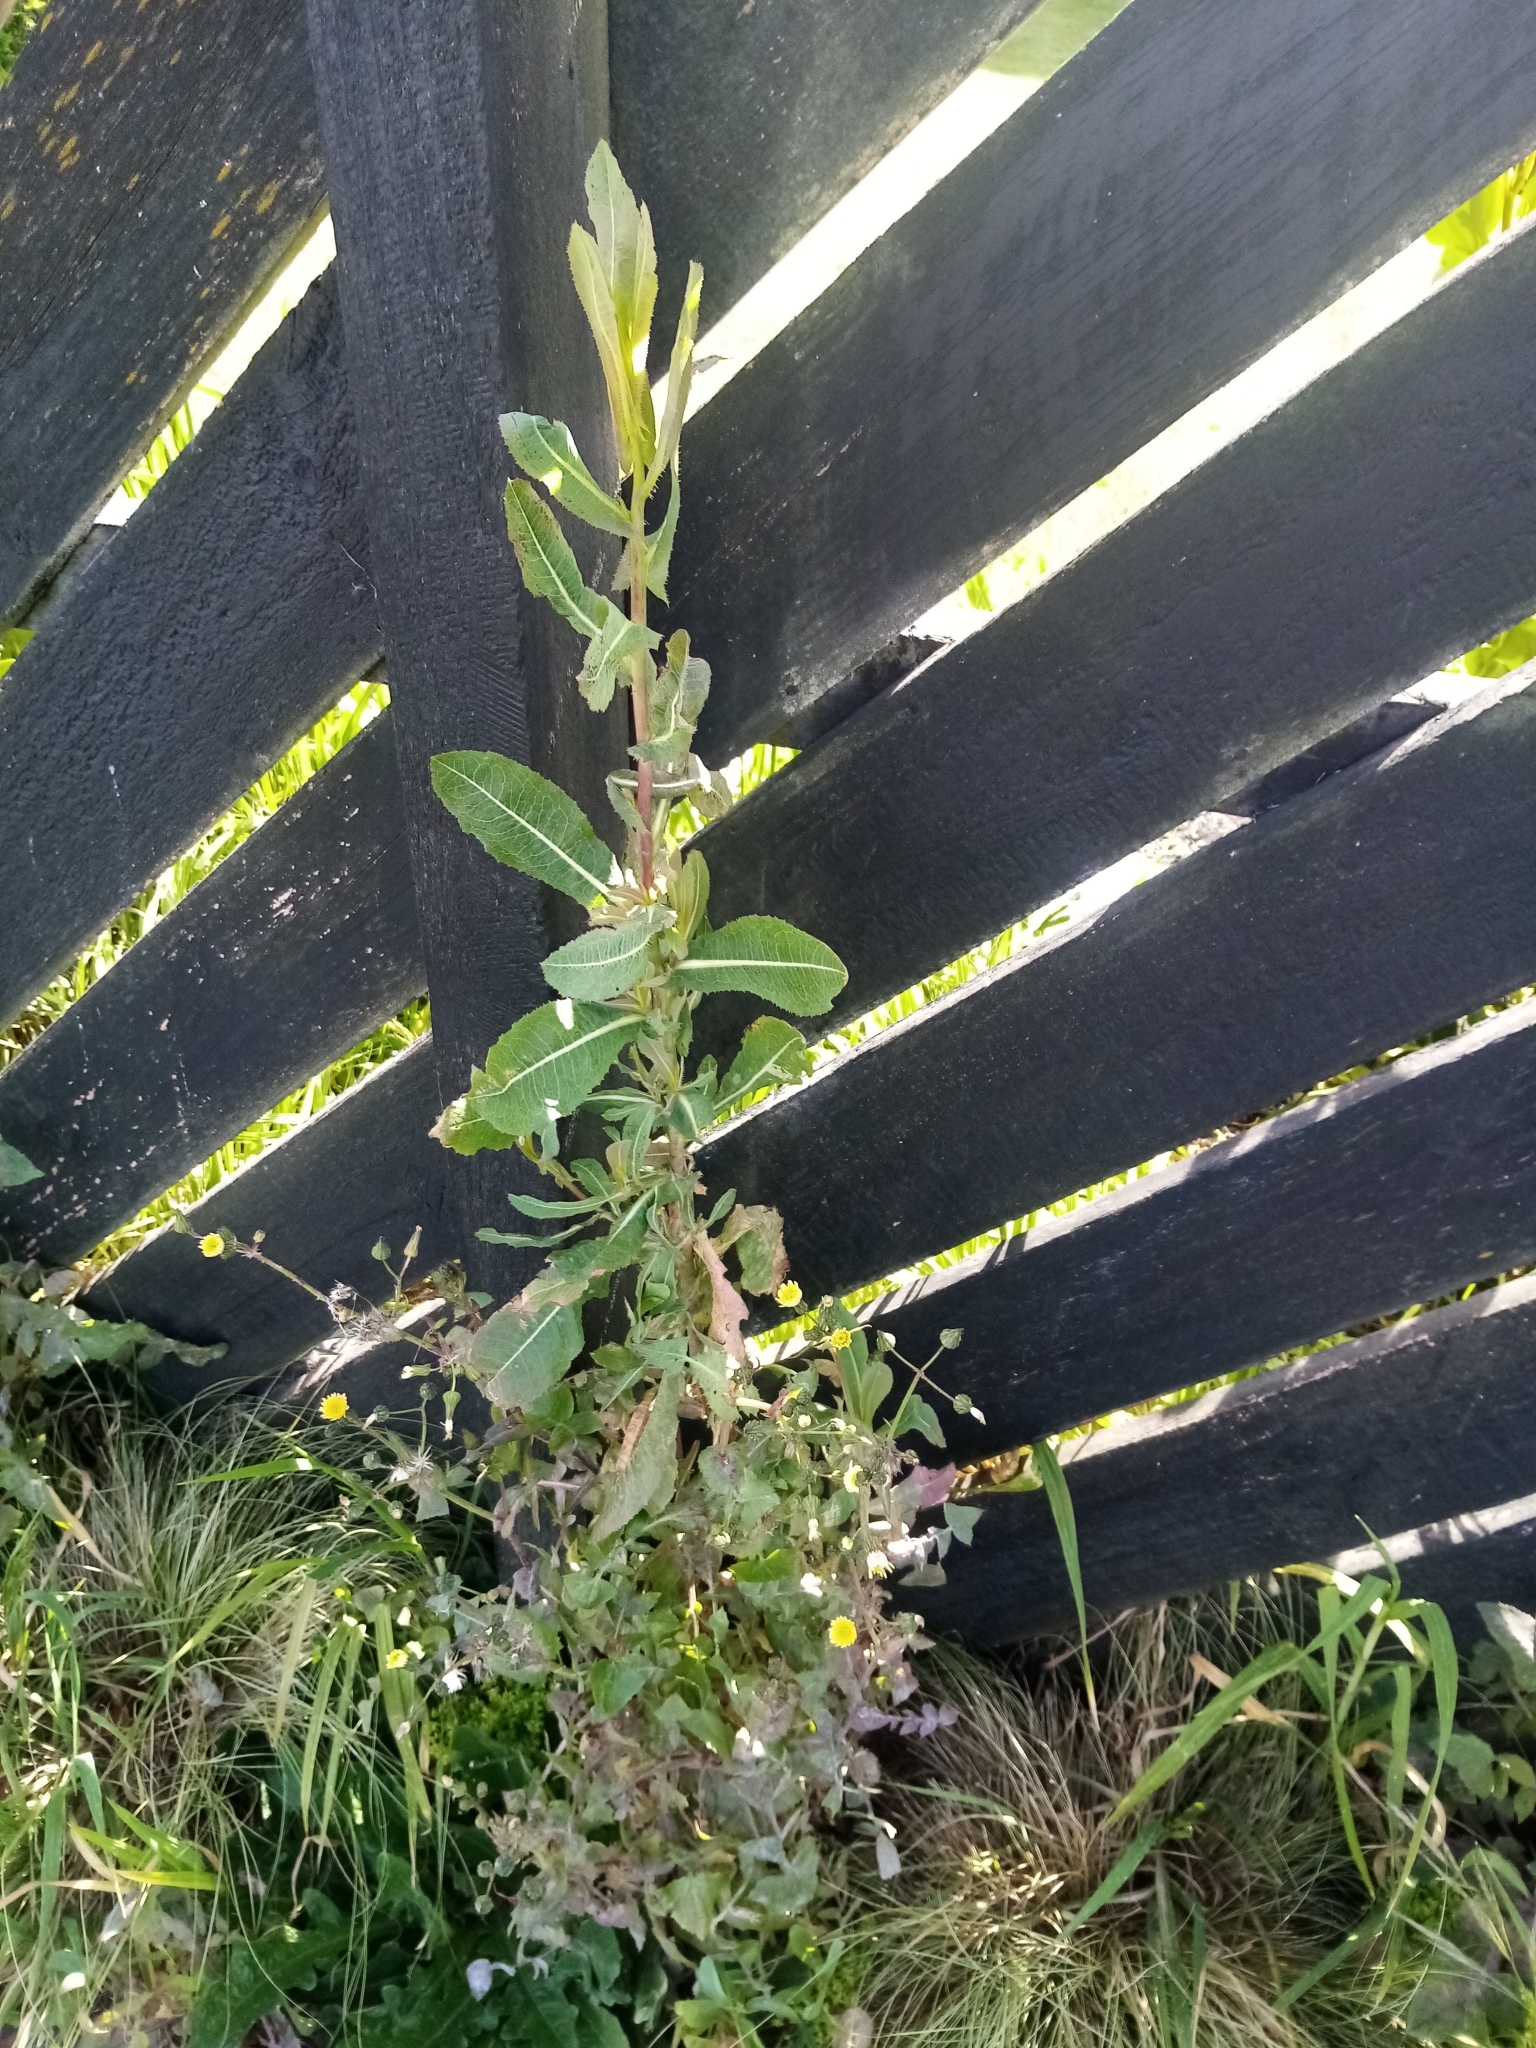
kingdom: Plantae
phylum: Tracheophyta
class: Magnoliopsida
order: Asterales
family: Asteraceae
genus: Lactuca
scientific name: Lactuca serriola
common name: Prickly lettuce
